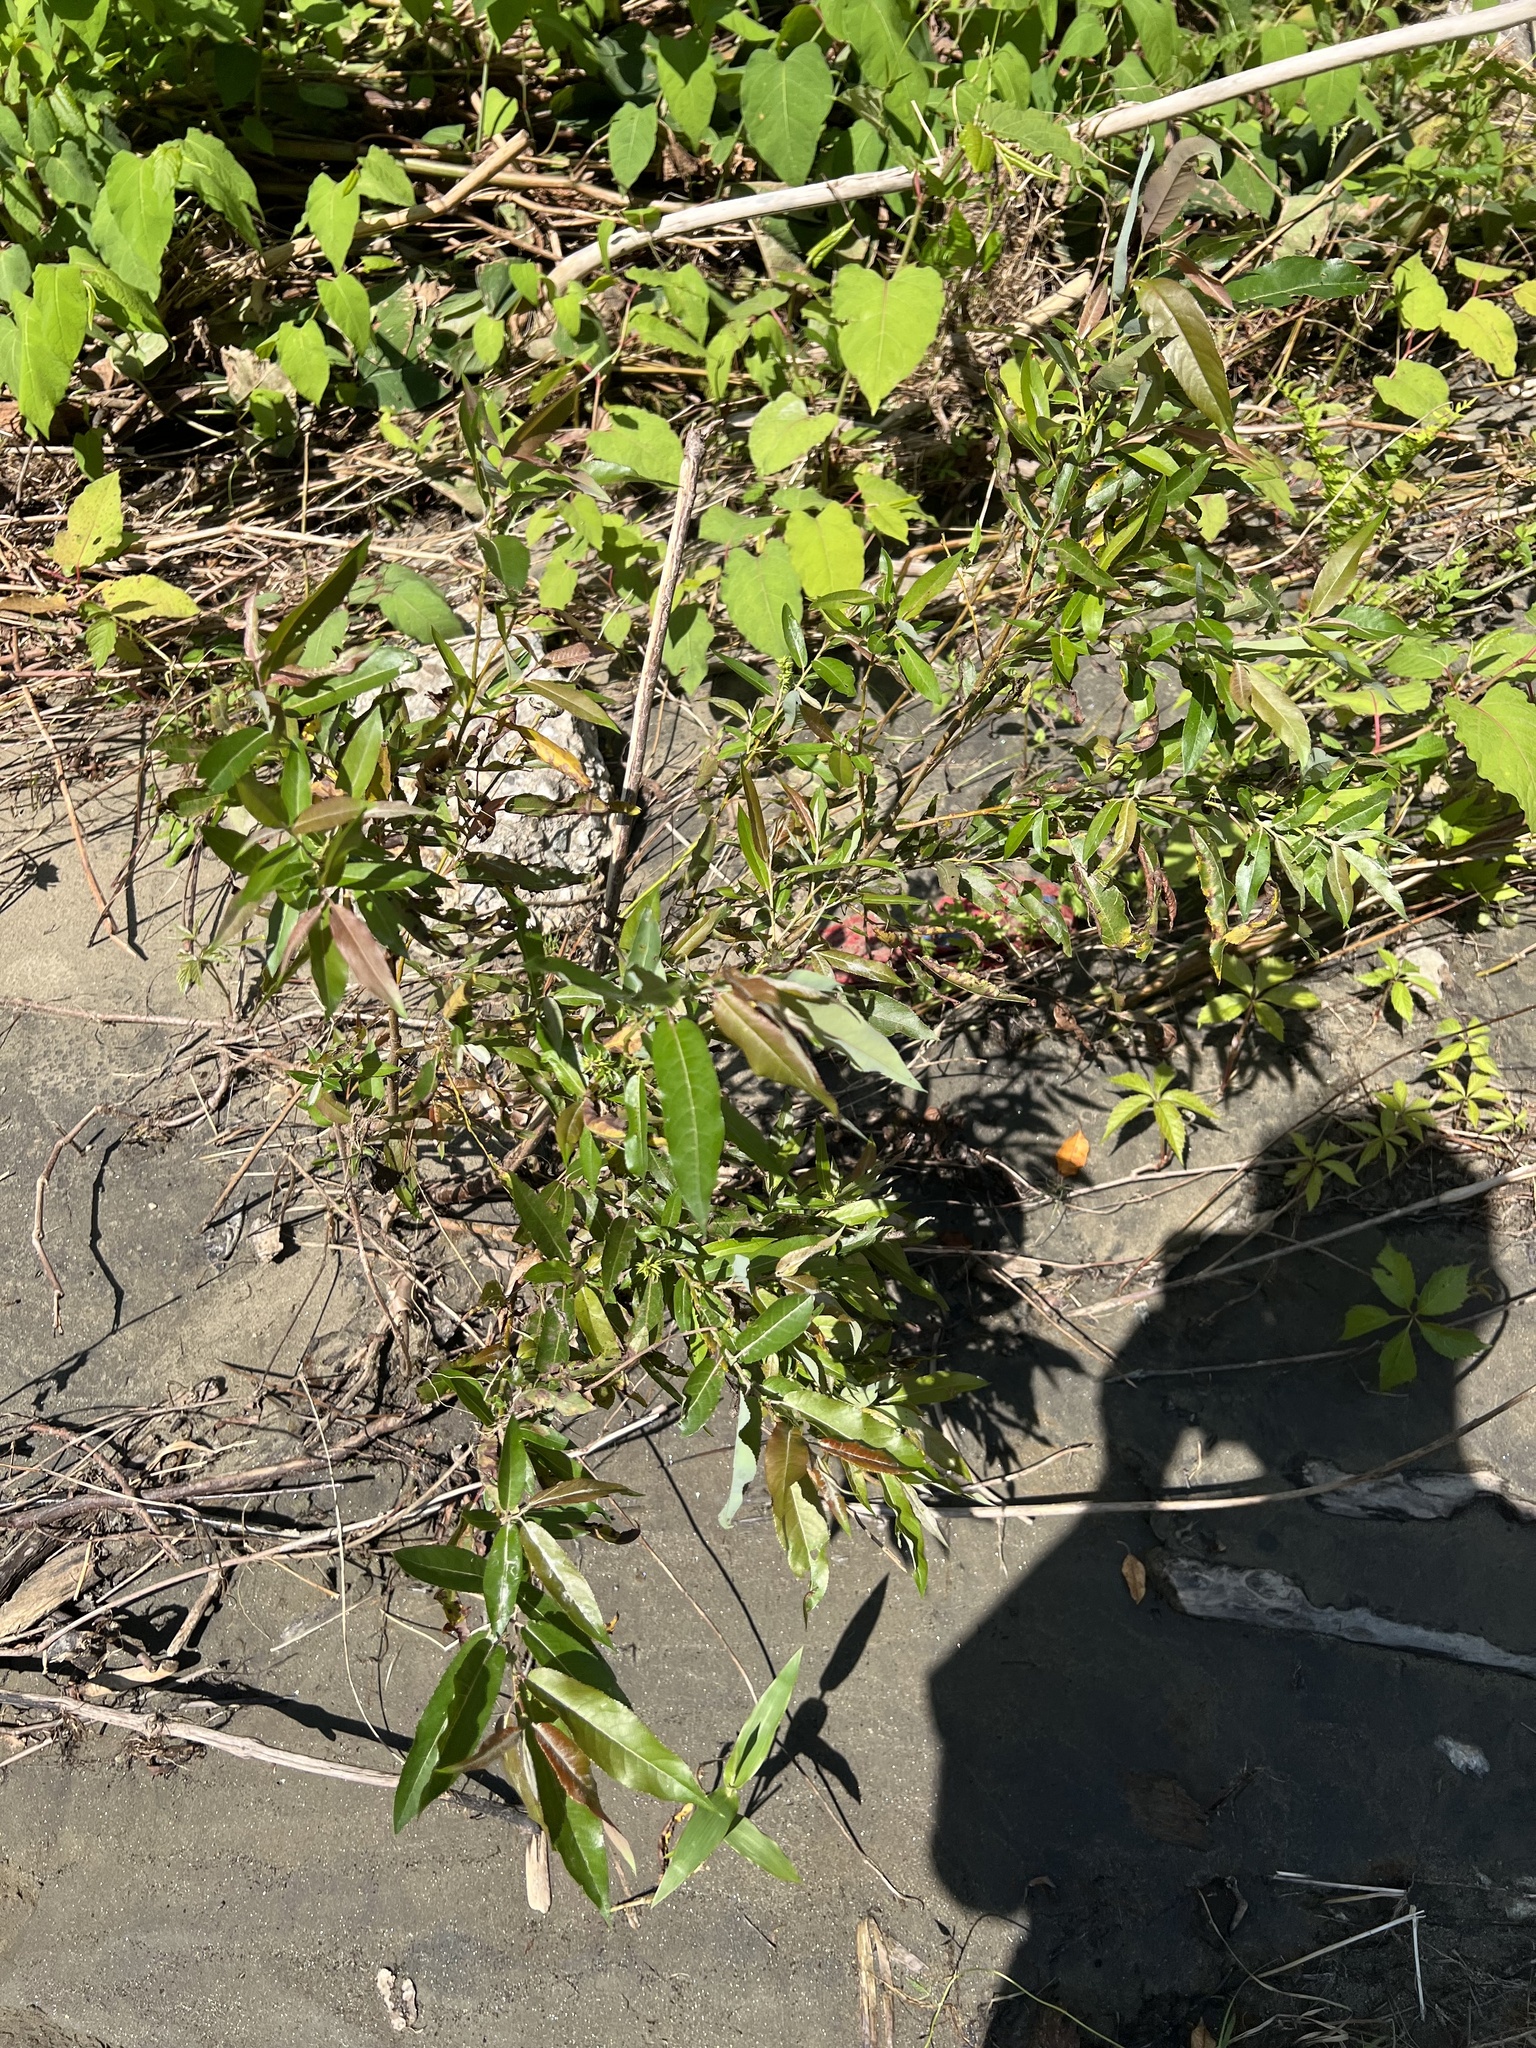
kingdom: Plantae
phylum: Tracheophyta
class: Magnoliopsida
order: Malpighiales
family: Salicaceae
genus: Salix
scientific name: Salix eriocephala
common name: Heart-leaved willow
